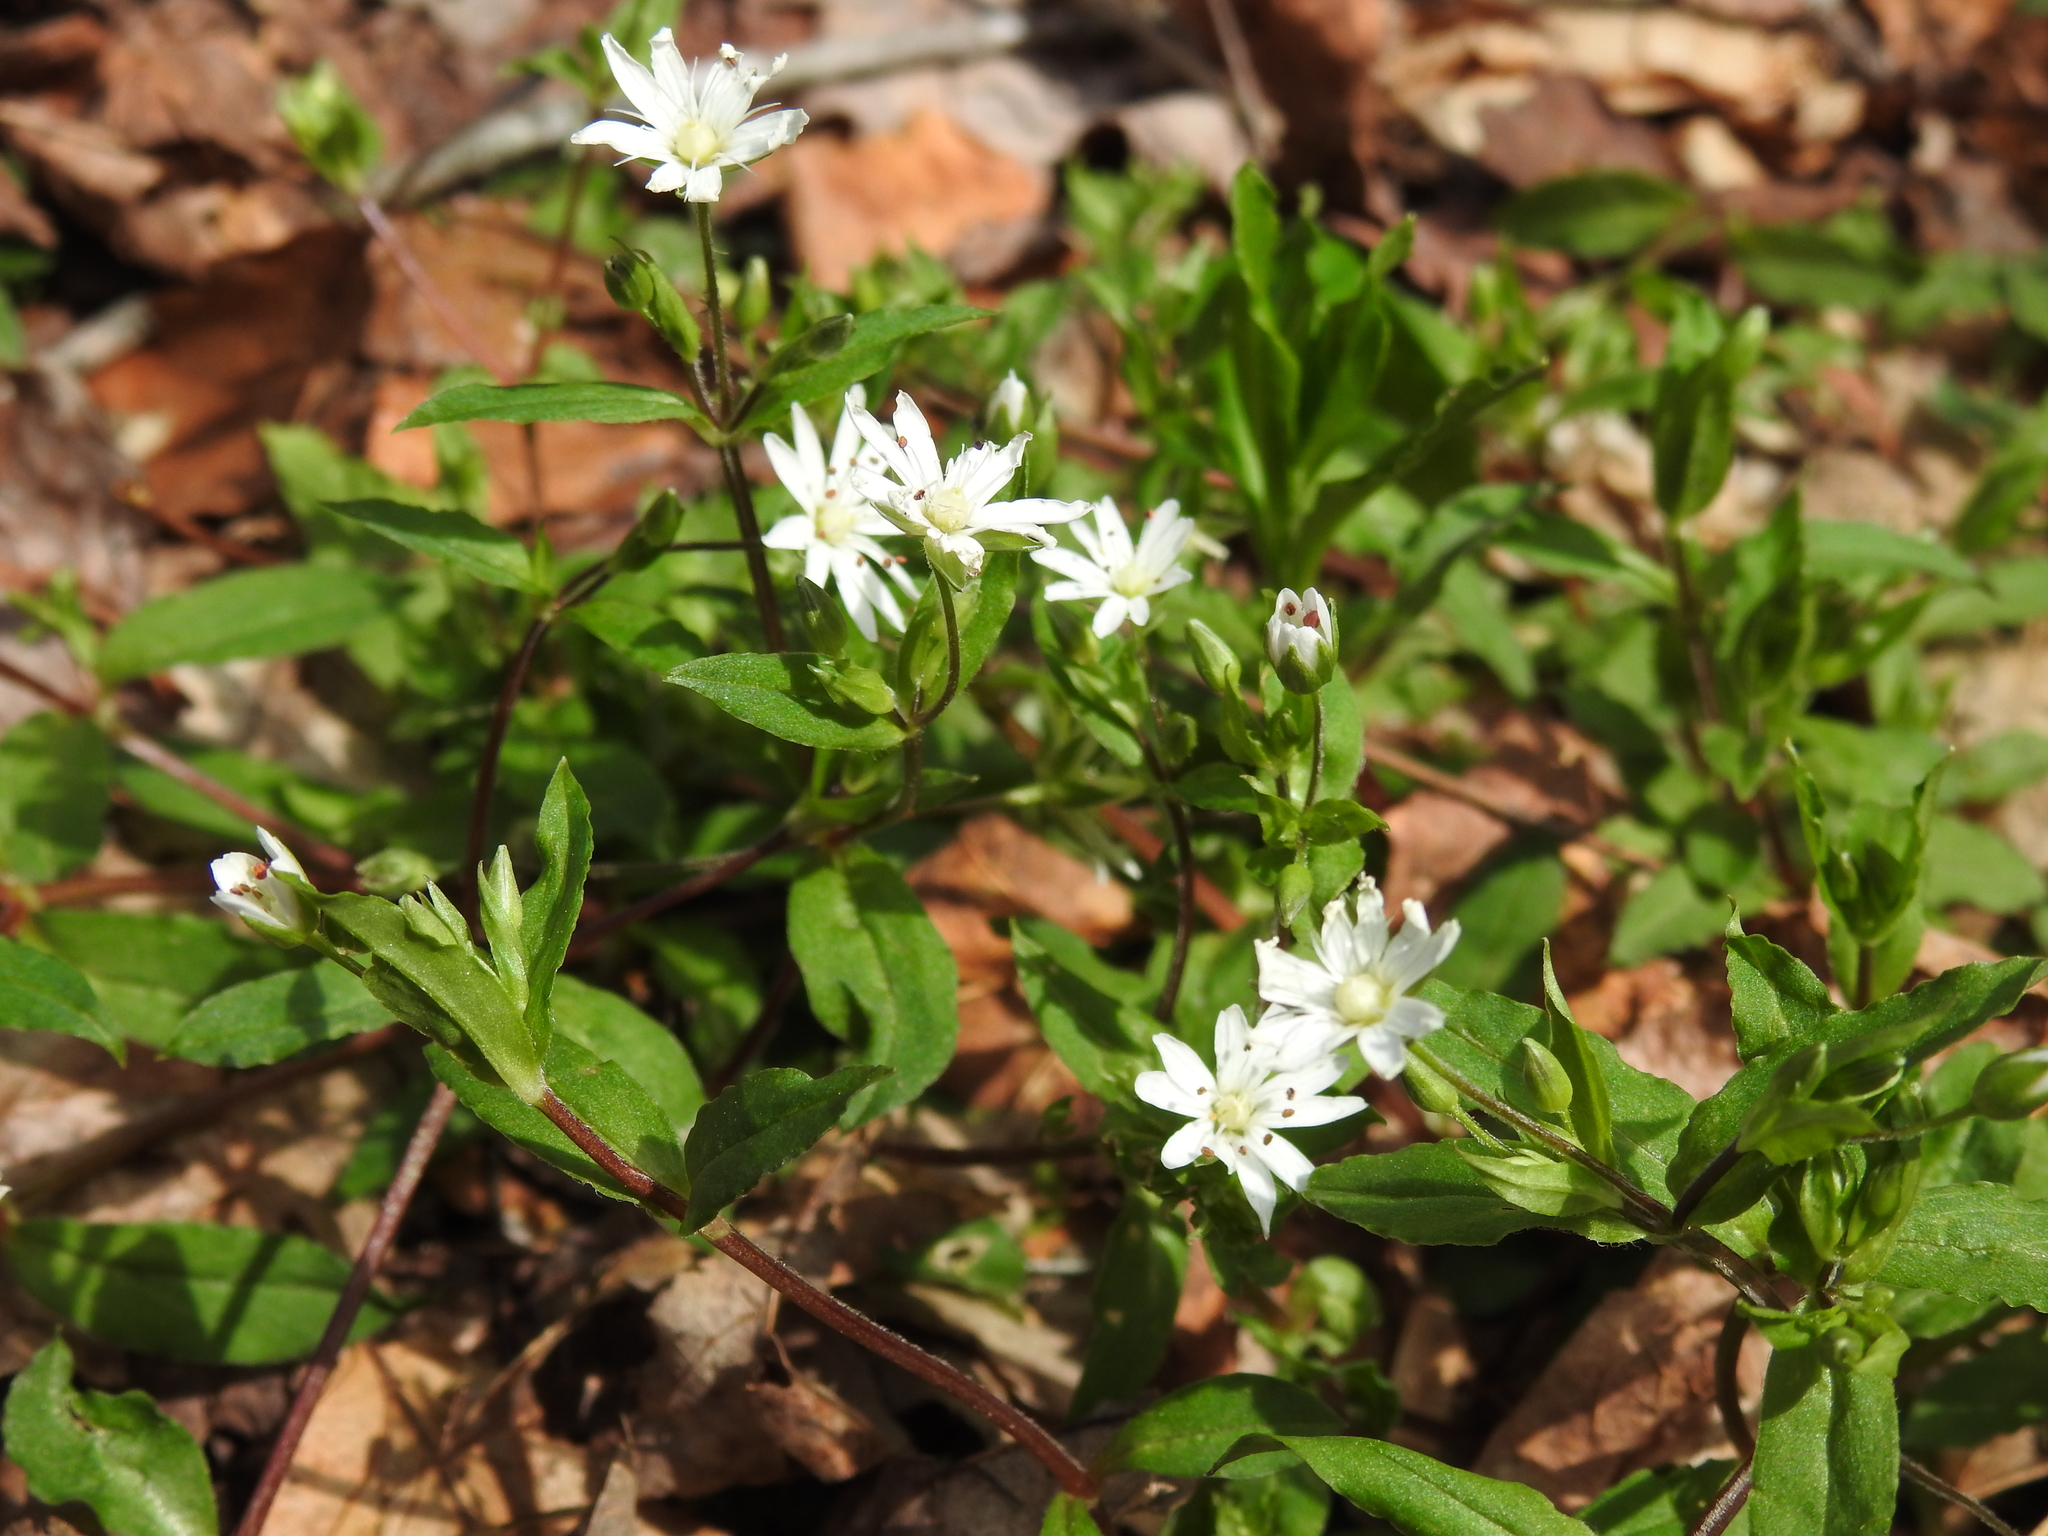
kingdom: Plantae
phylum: Tracheophyta
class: Magnoliopsida
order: Caryophyllales
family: Caryophyllaceae
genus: Stellaria
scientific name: Stellaria pubera
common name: Star chickweed
